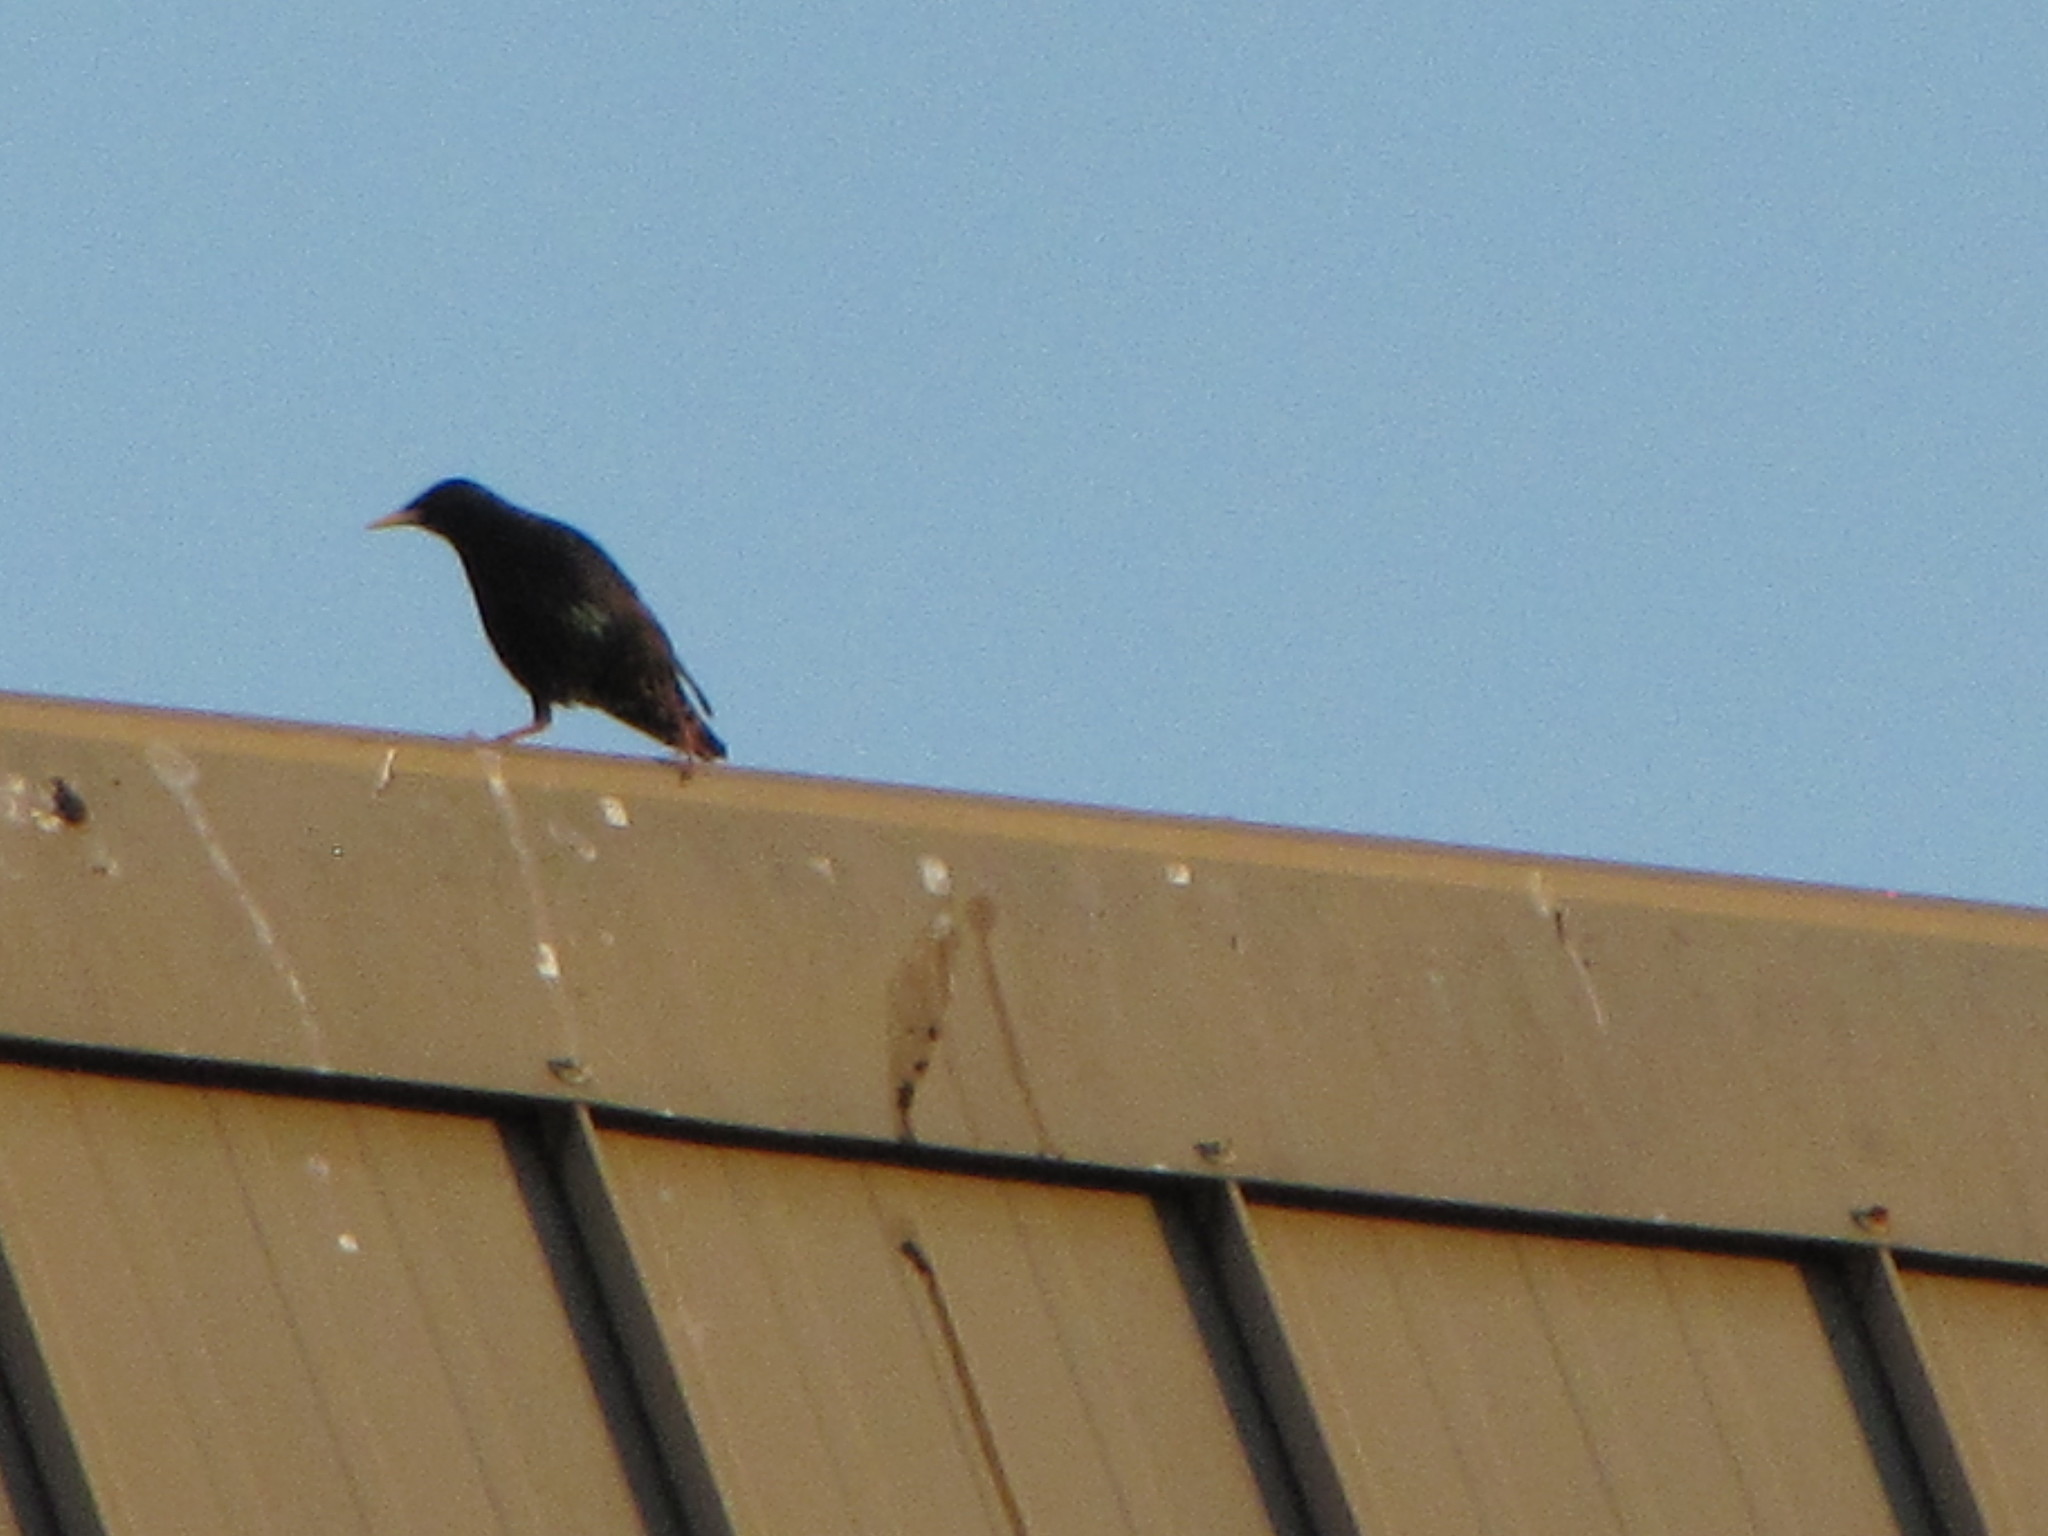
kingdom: Animalia
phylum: Chordata
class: Aves
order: Passeriformes
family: Sturnidae
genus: Sturnus
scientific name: Sturnus vulgaris
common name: Common starling
